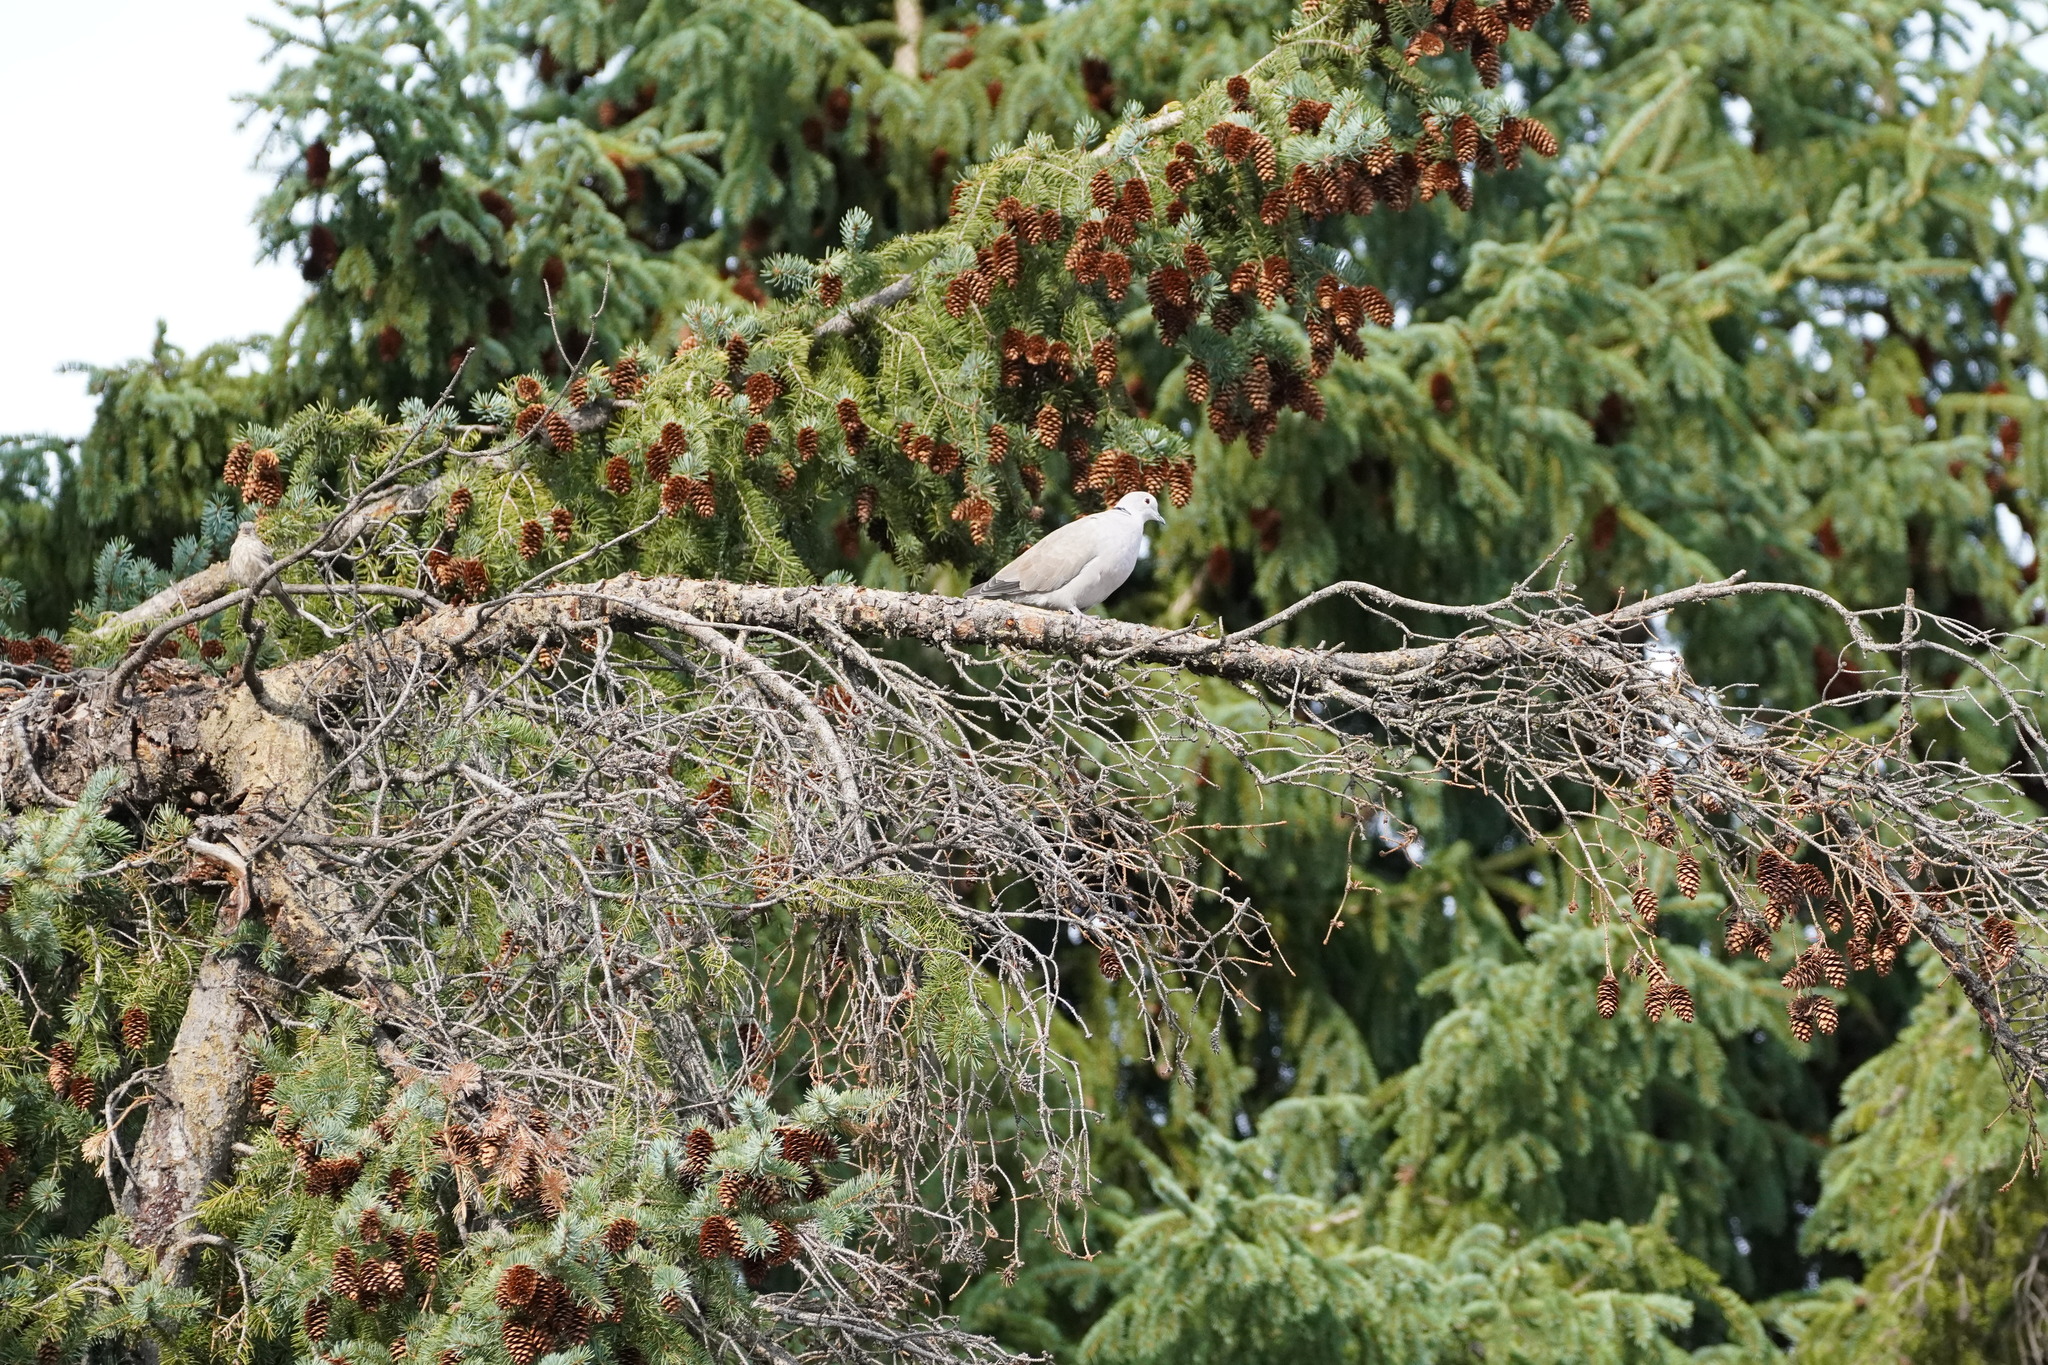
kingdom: Animalia
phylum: Chordata
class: Aves
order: Columbiformes
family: Columbidae
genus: Streptopelia
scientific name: Streptopelia decaocto
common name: Eurasian collared dove
